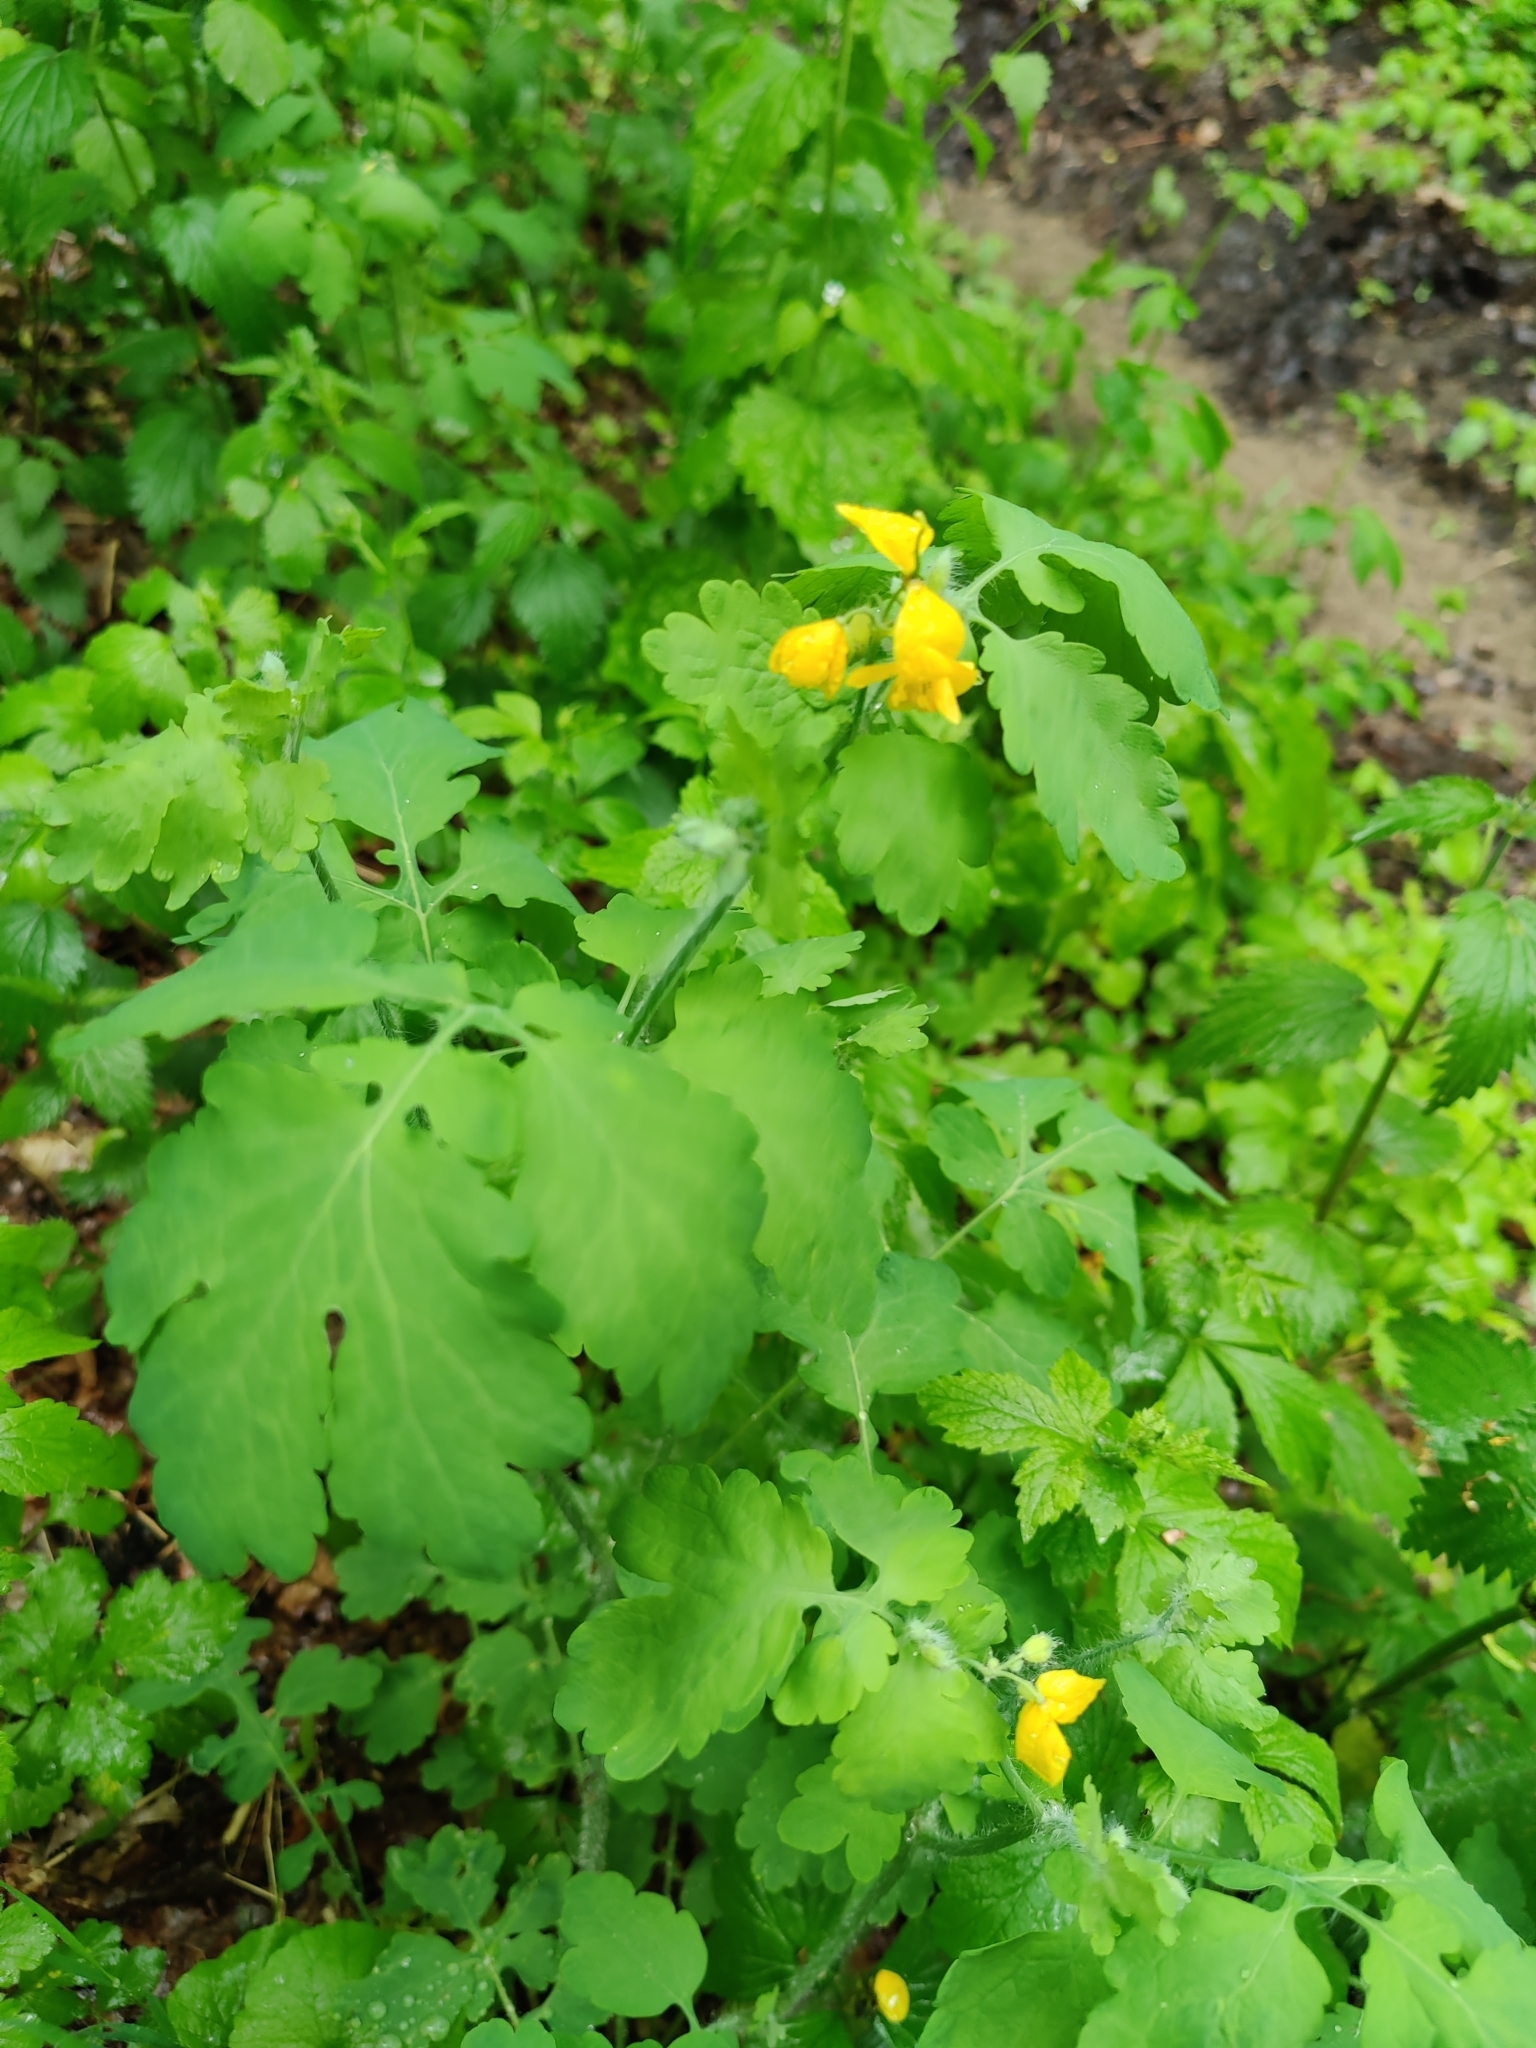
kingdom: Plantae
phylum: Tracheophyta
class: Magnoliopsida
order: Ranunculales
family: Papaveraceae
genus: Chelidonium
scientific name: Chelidonium majus
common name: Greater celandine
